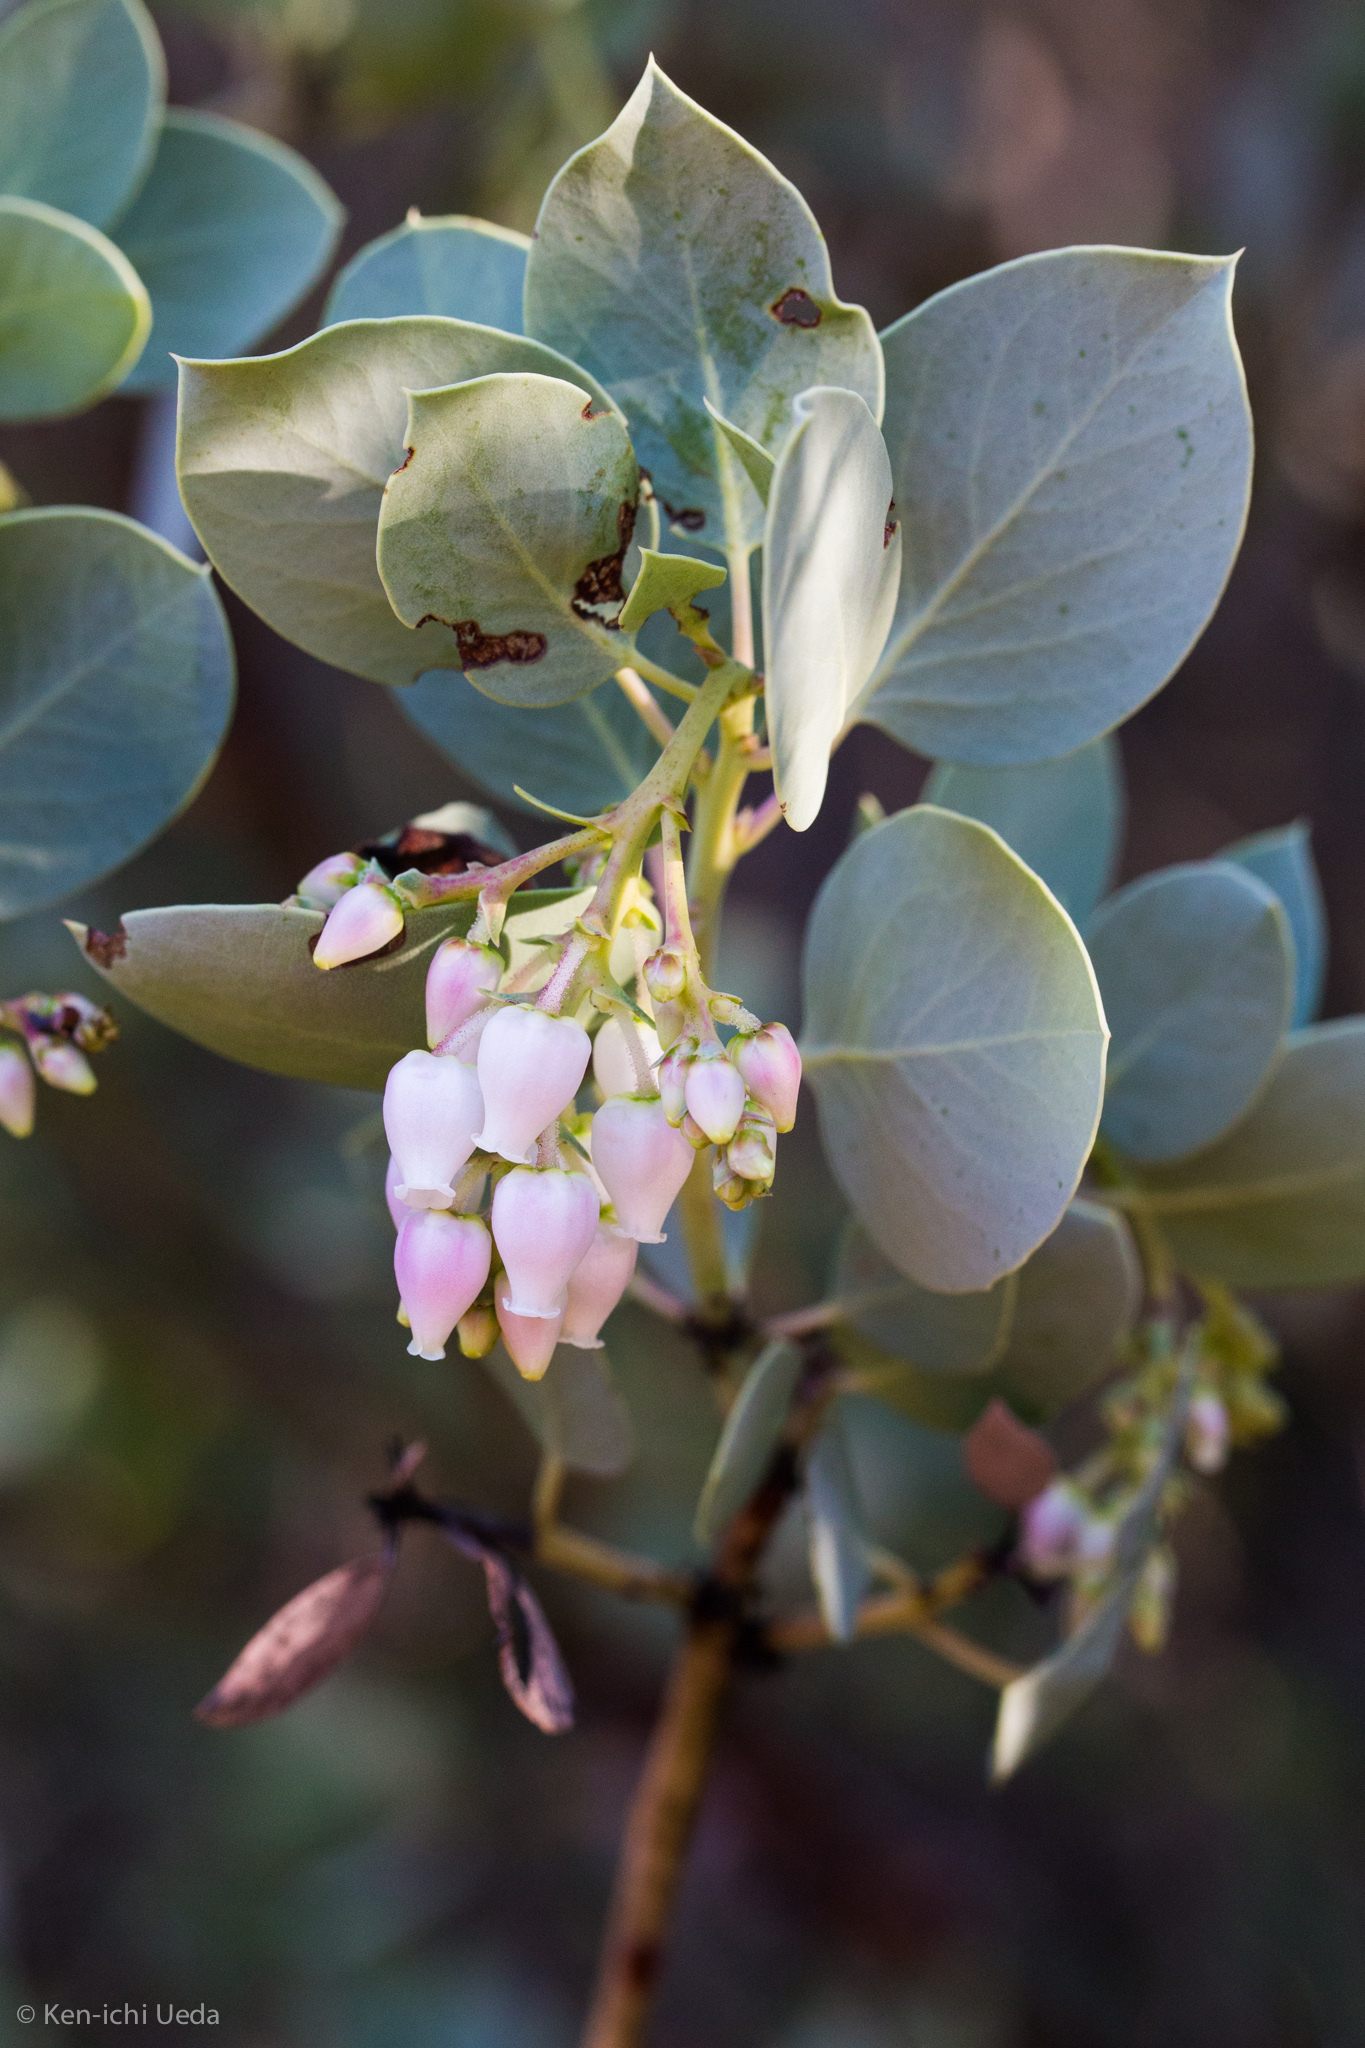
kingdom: Plantae
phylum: Tracheophyta
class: Magnoliopsida
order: Ericales
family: Ericaceae
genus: Arctostaphylos
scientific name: Arctostaphylos glauca
